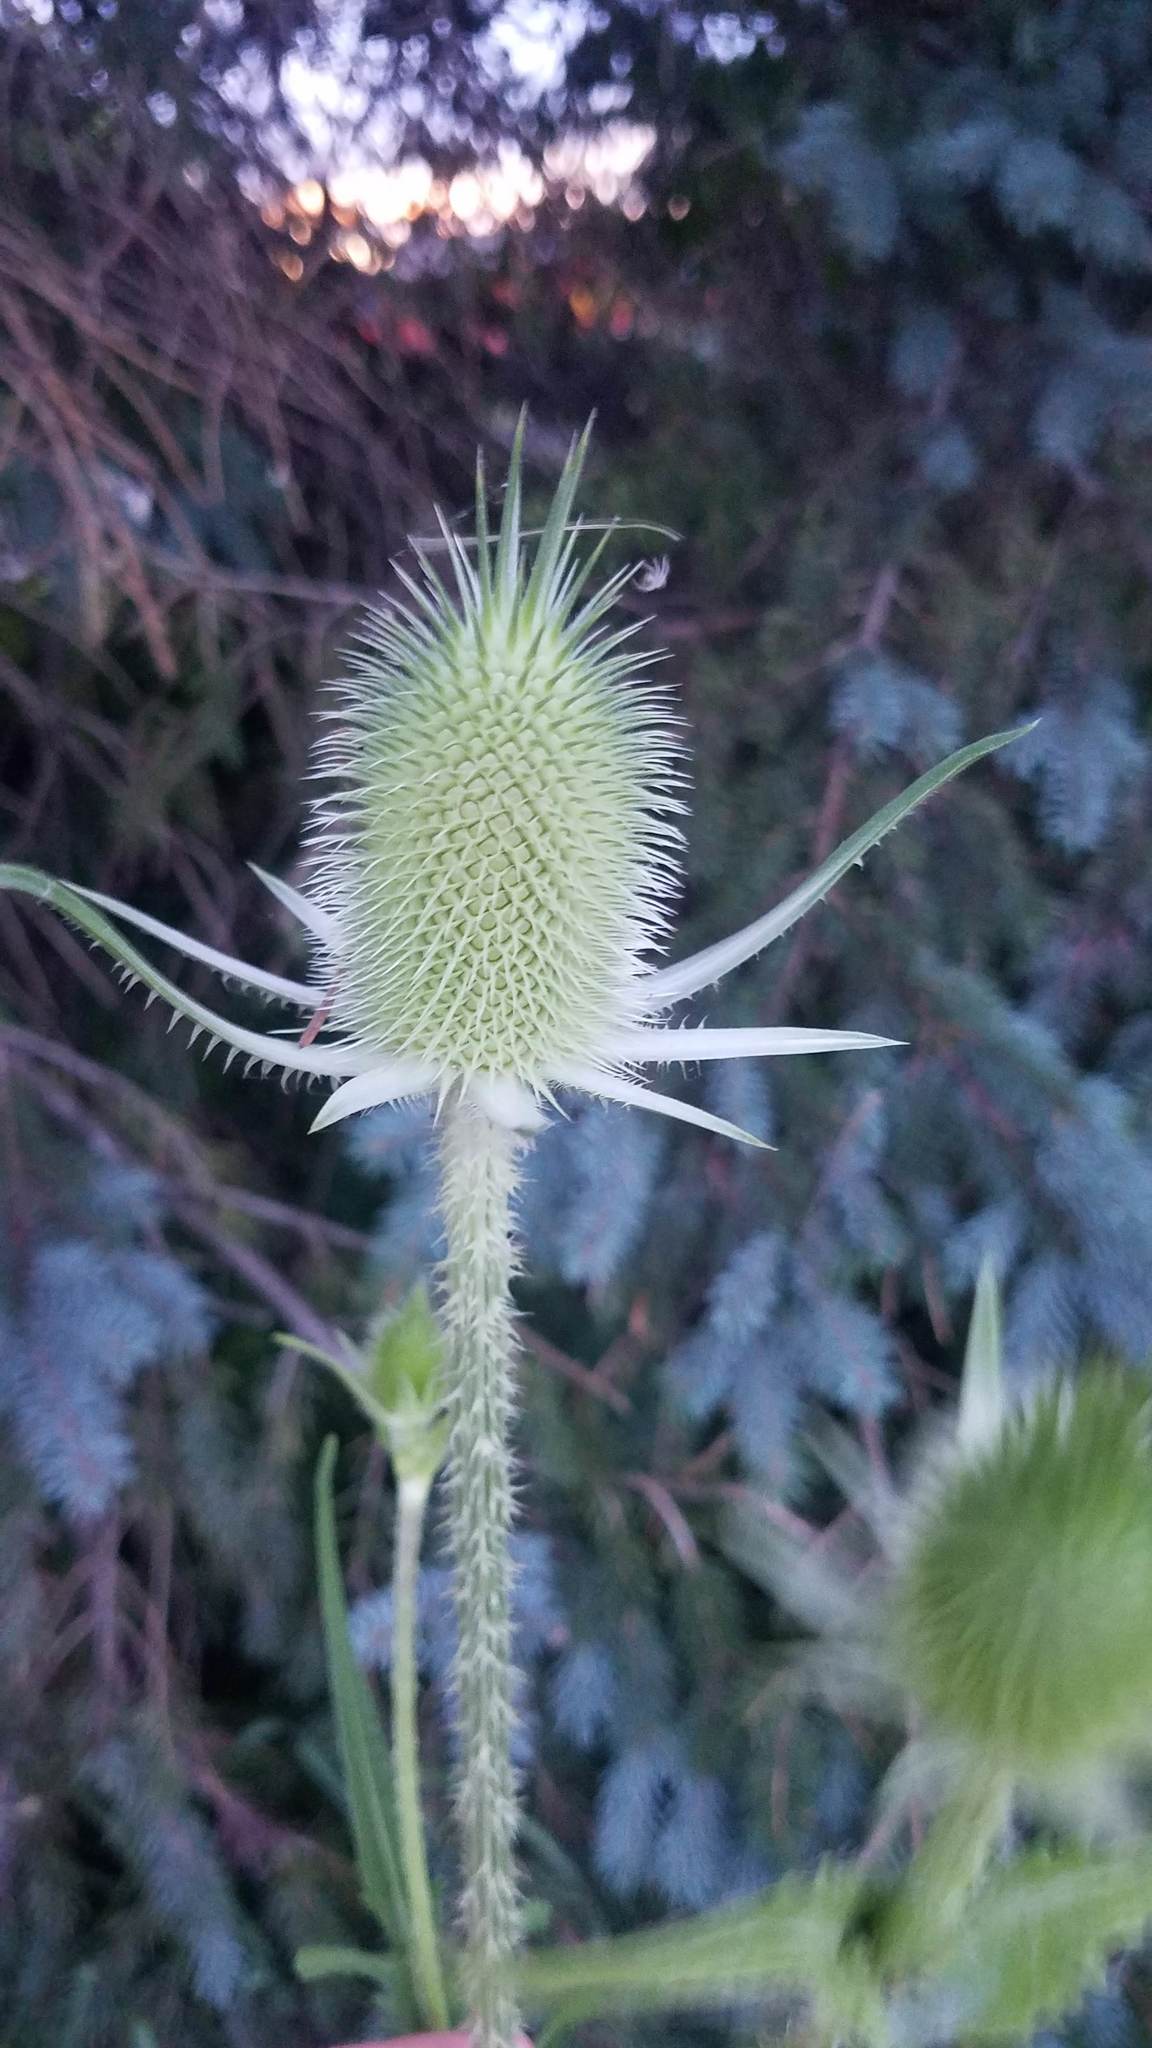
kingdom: Plantae
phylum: Tracheophyta
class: Magnoliopsida
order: Dipsacales
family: Caprifoliaceae
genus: Dipsacus
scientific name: Dipsacus laciniatus
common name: Cut-leaved teasel
